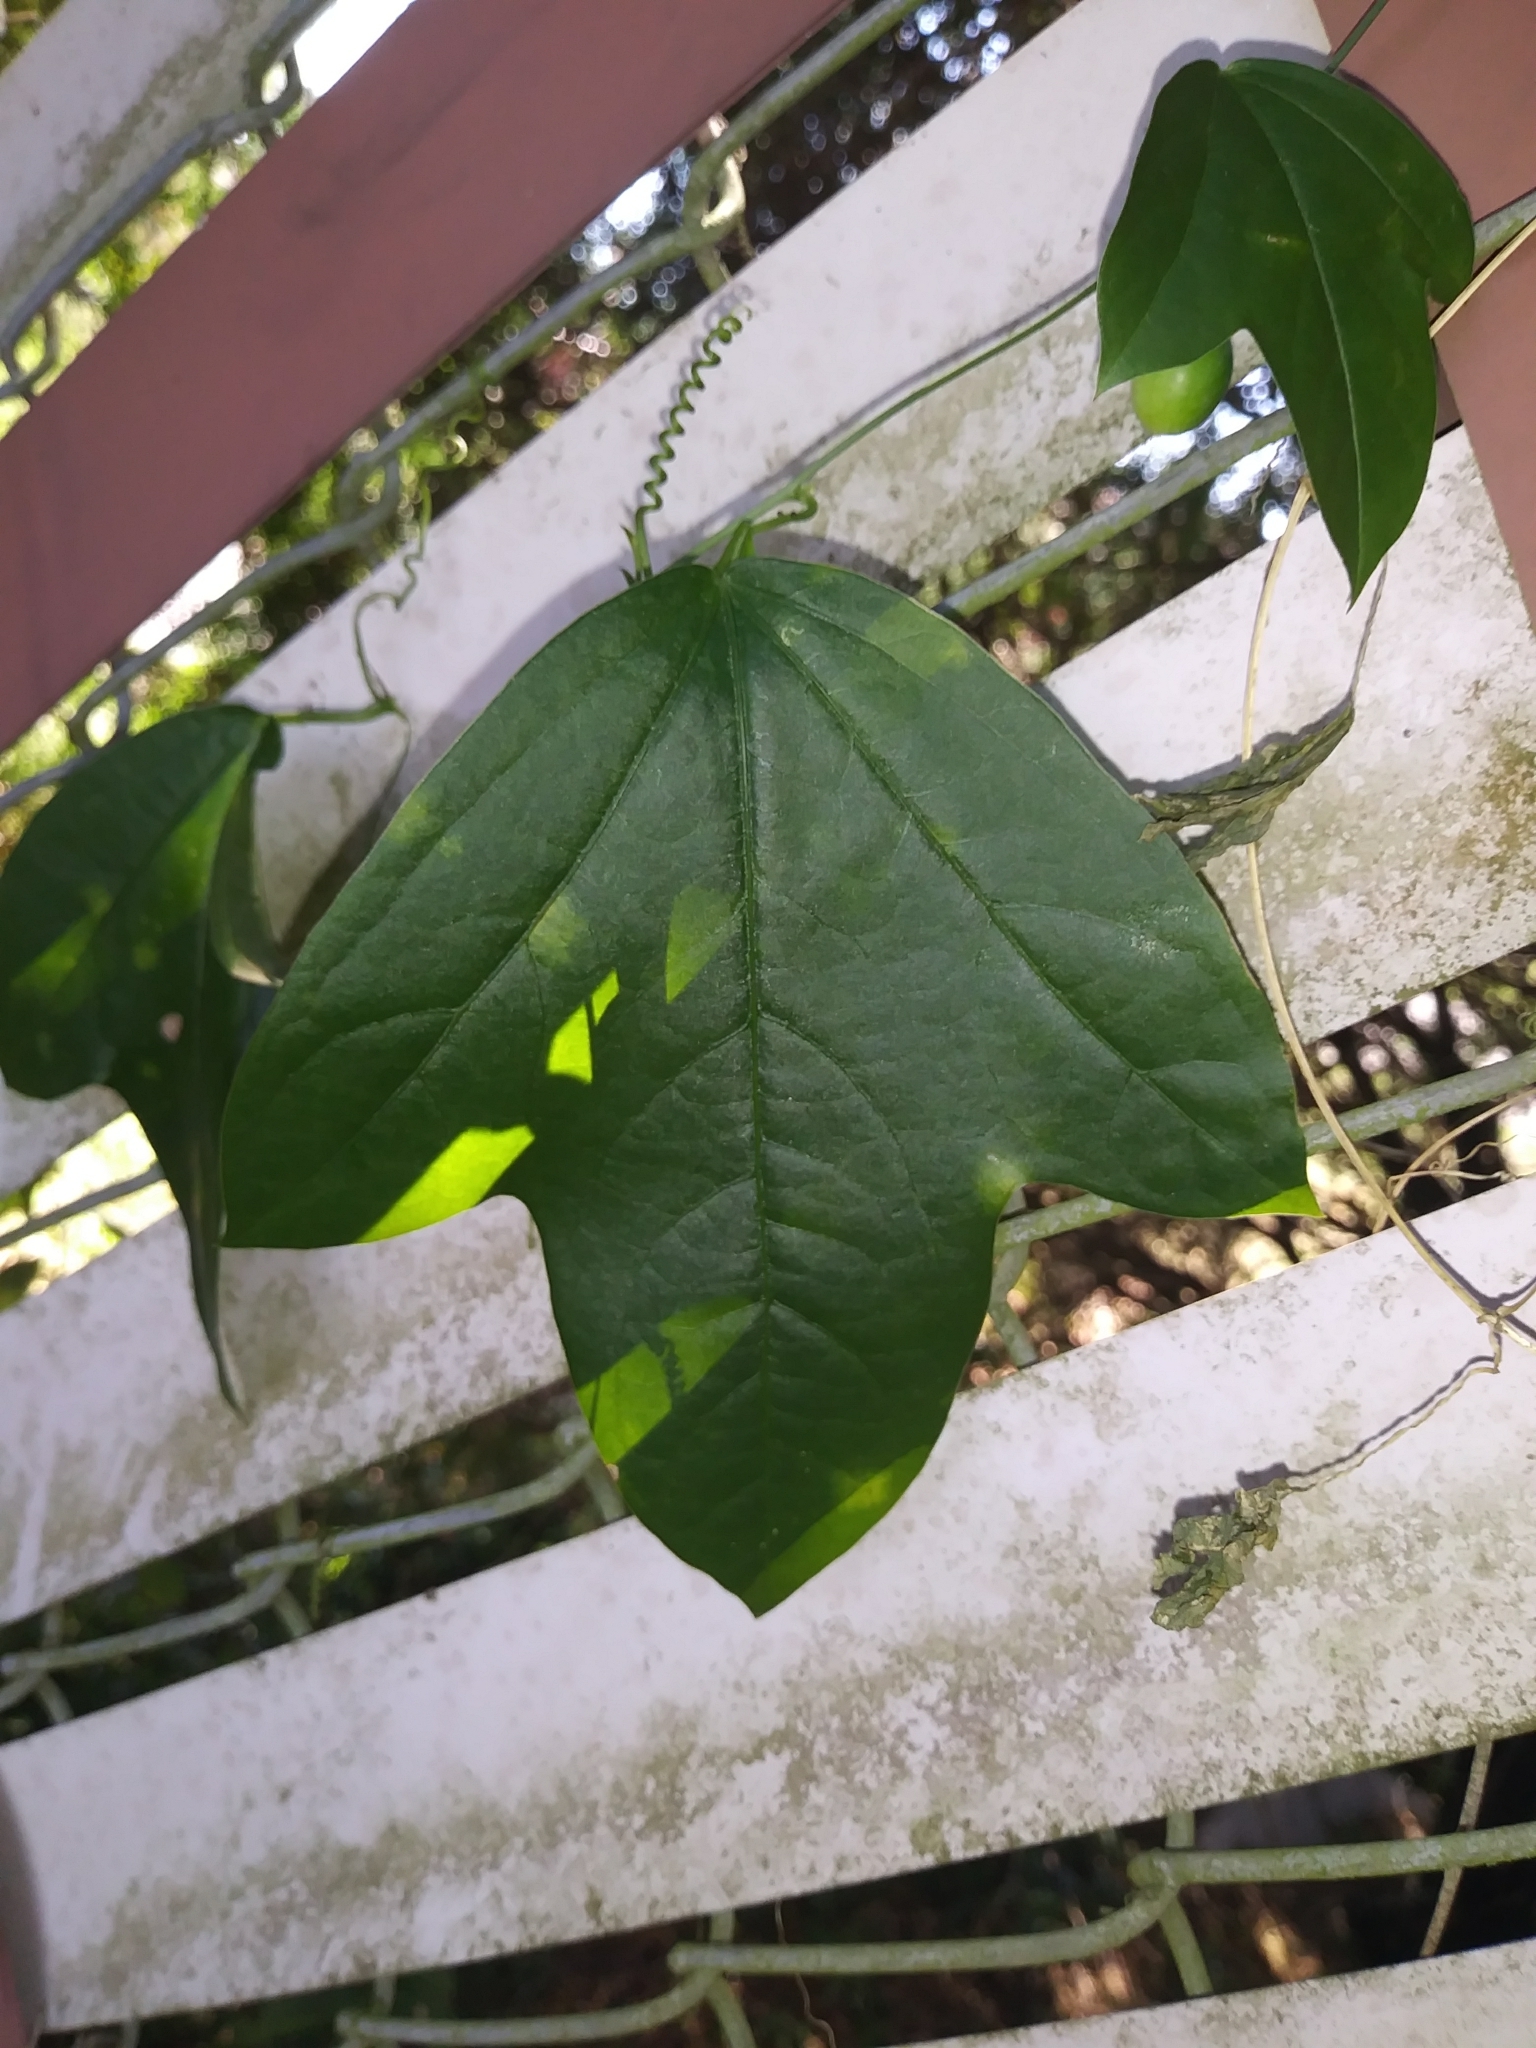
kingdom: Plantae
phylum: Tracheophyta
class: Magnoliopsida
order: Malpighiales
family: Passifloraceae
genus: Passiflora
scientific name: Passiflora pallida
